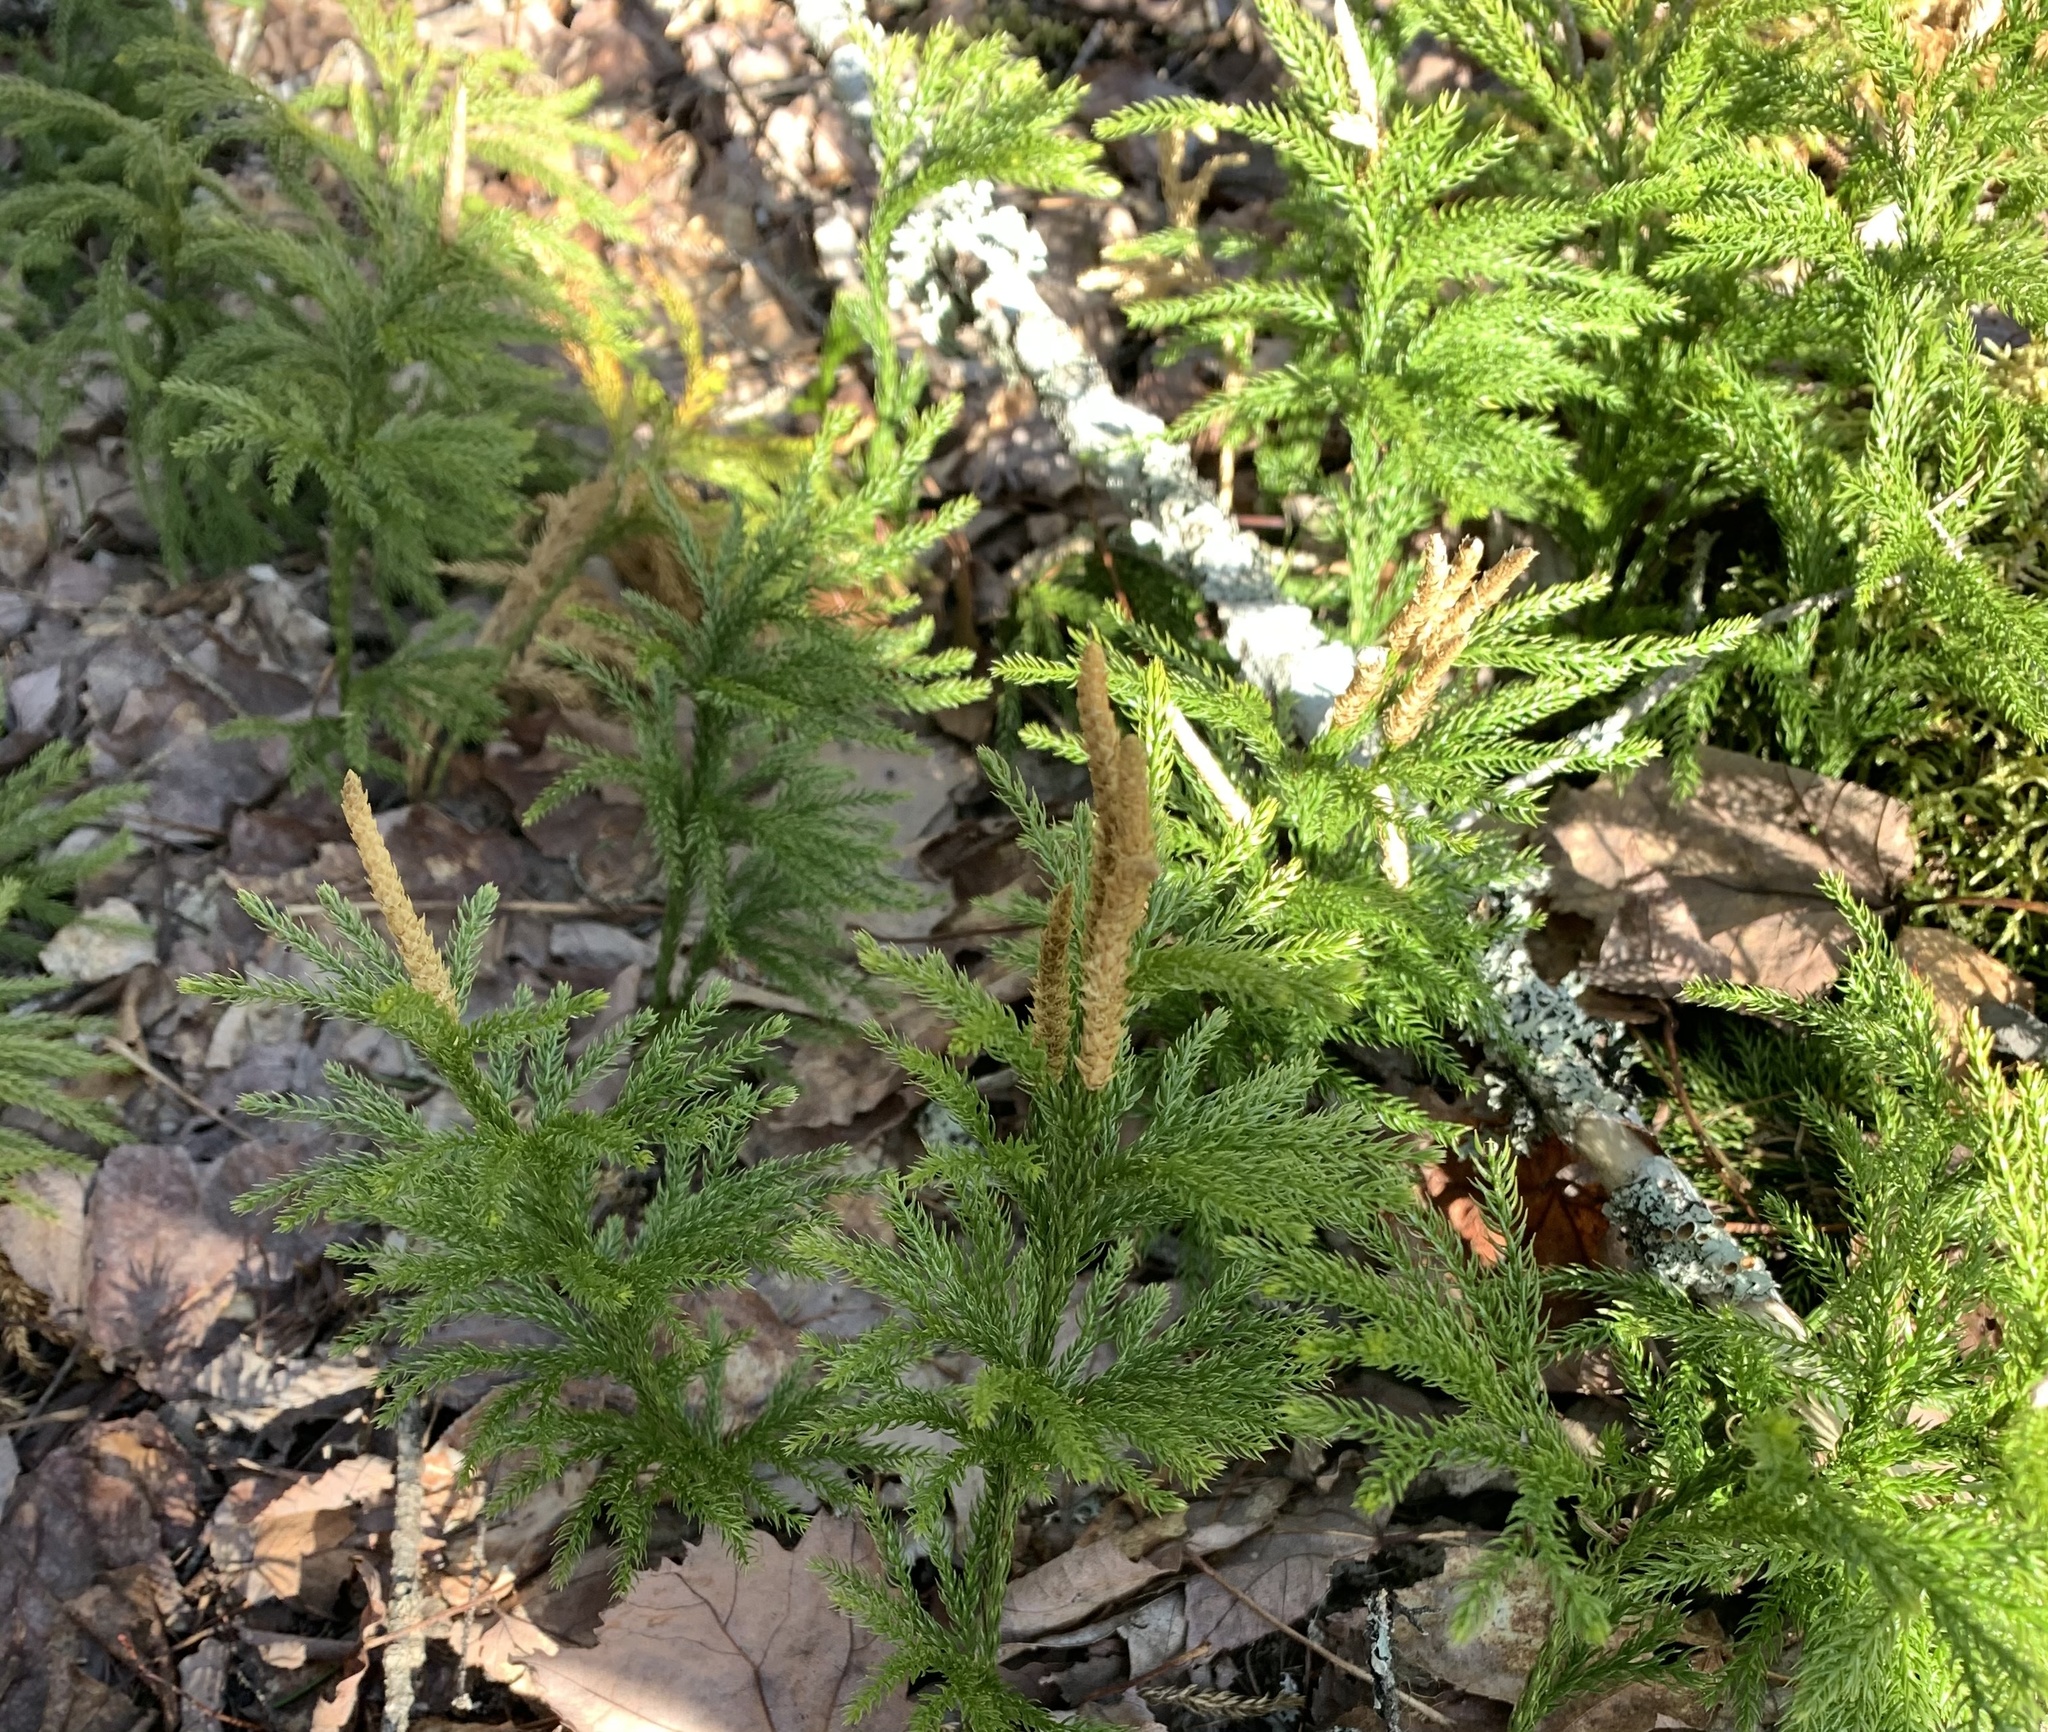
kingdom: Plantae
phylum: Tracheophyta
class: Lycopodiopsida
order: Lycopodiales
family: Lycopodiaceae
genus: Dendrolycopodium
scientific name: Dendrolycopodium hickeyi
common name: Hickey's clubmoss
